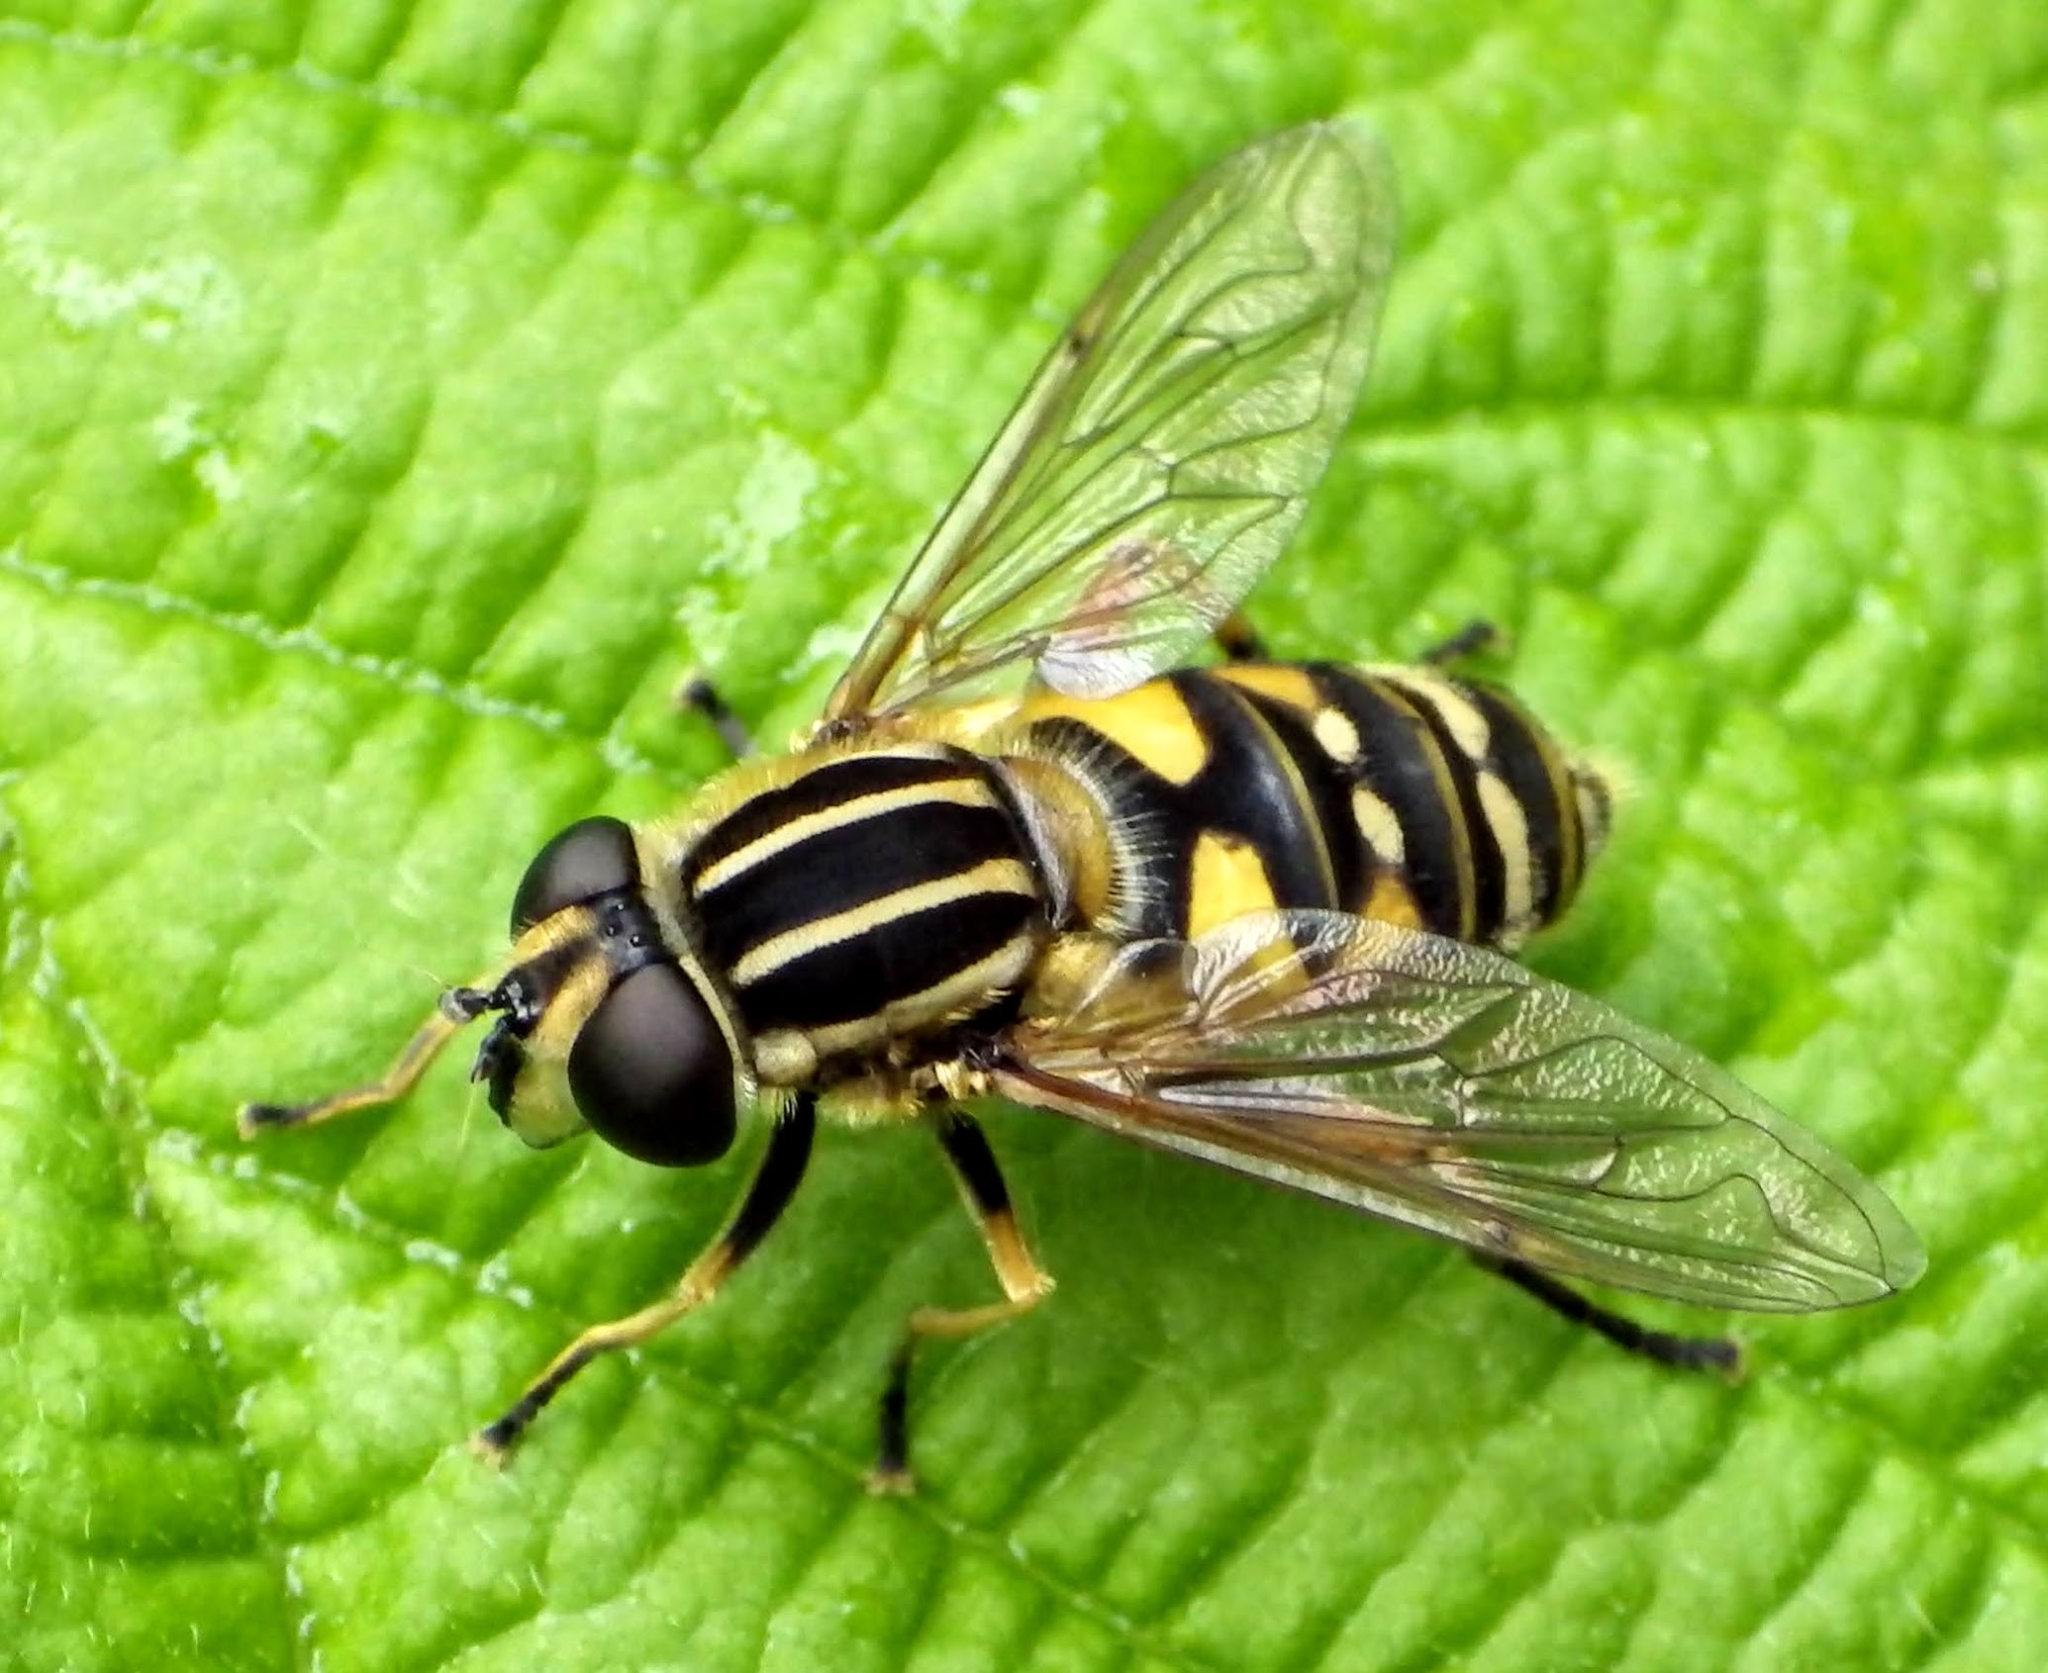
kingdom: Animalia
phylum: Arthropoda
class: Insecta
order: Diptera
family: Syrphidae
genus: Helophilus
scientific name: Helophilus pendulus
